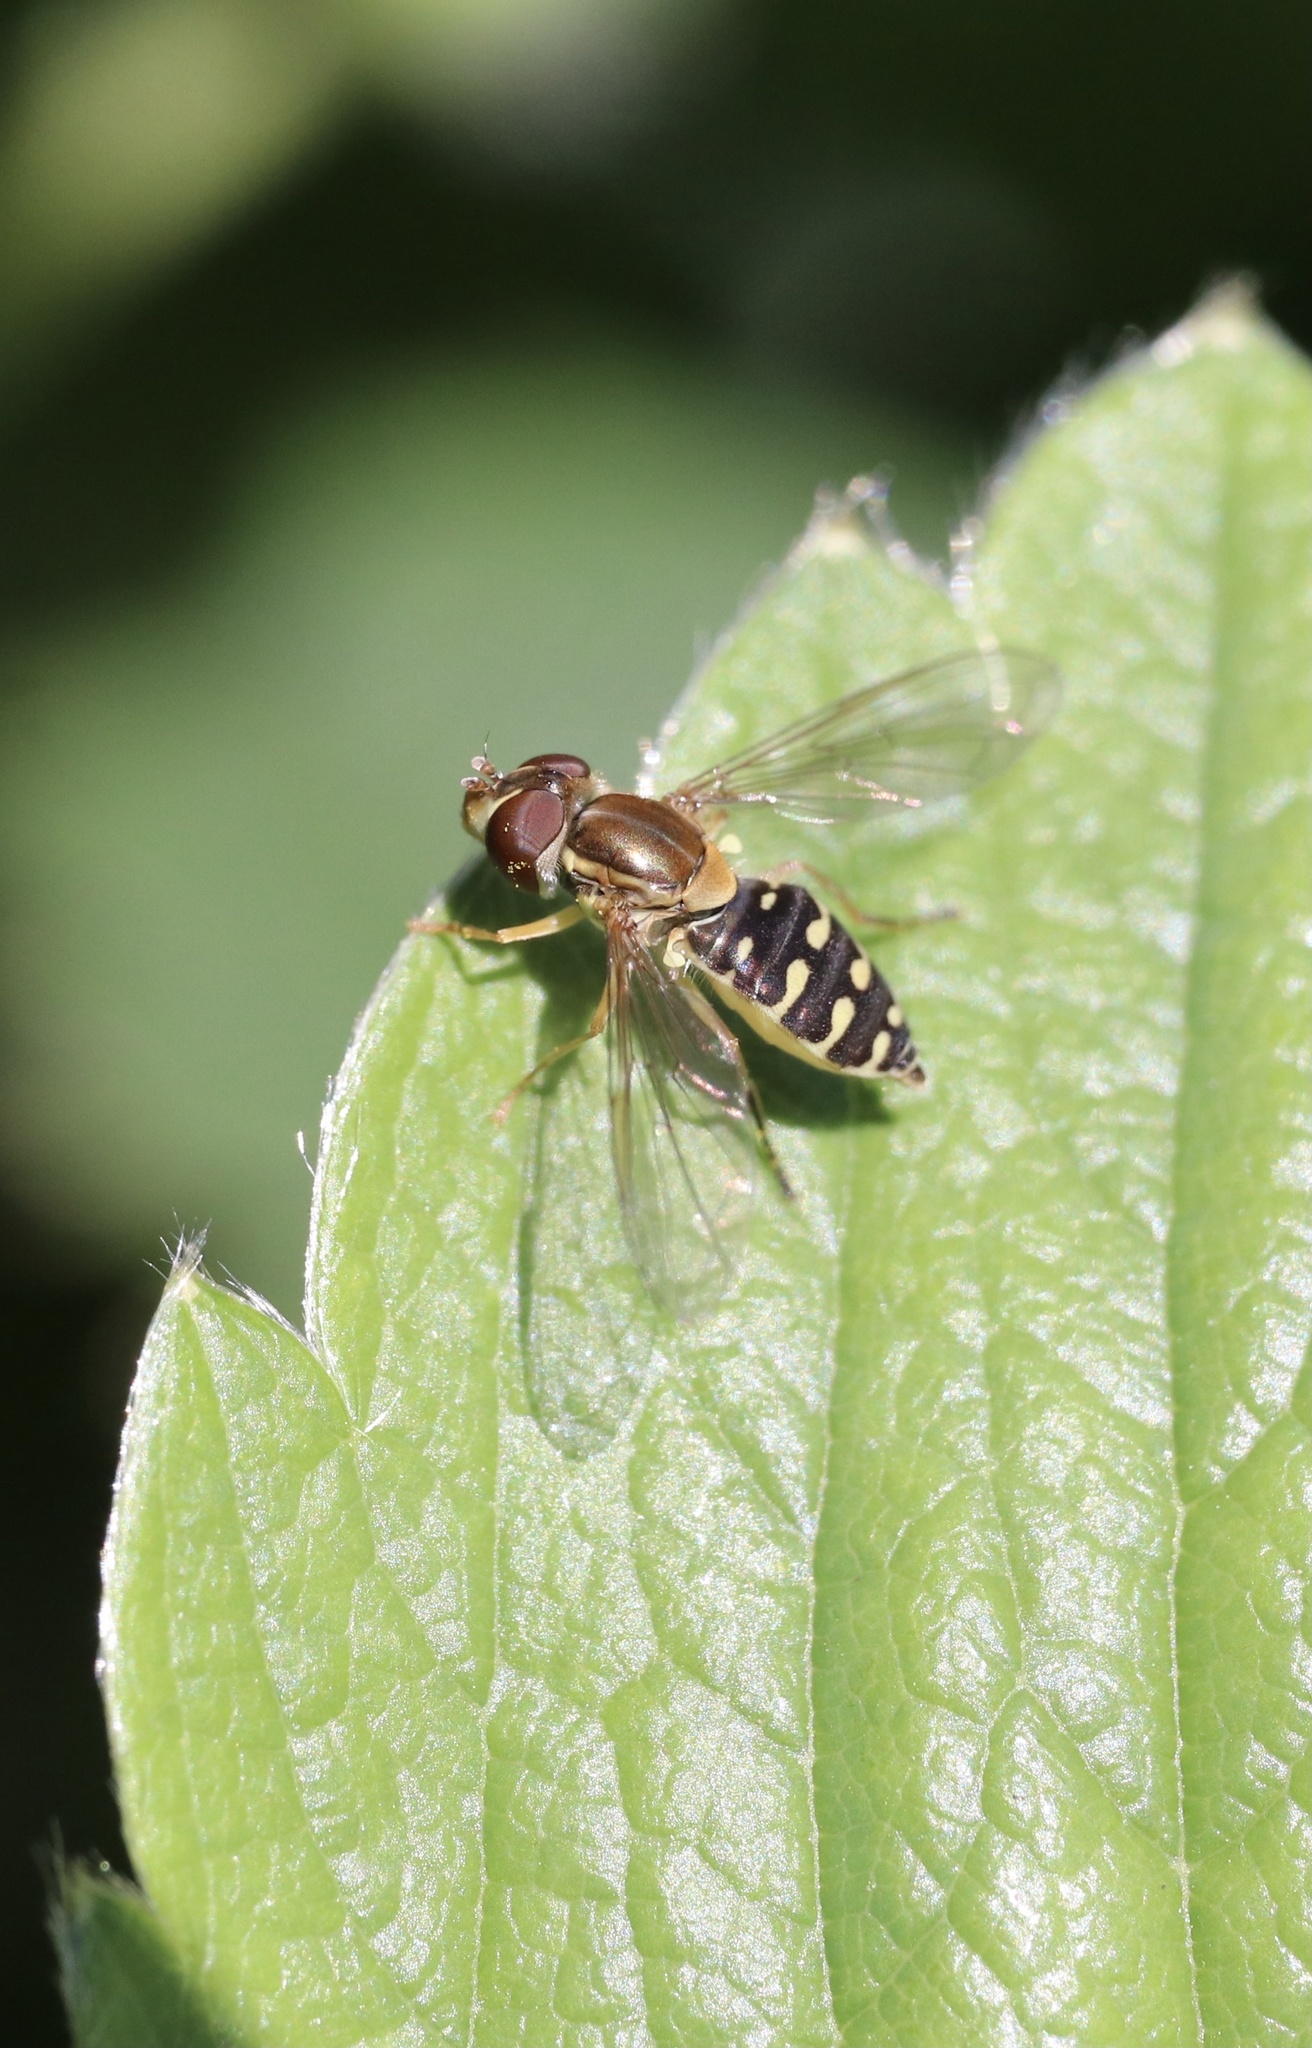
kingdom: Animalia
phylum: Arthropoda
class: Insecta
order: Diptera
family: Syrphidae
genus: Toxomerus
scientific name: Toxomerus vertebratus
